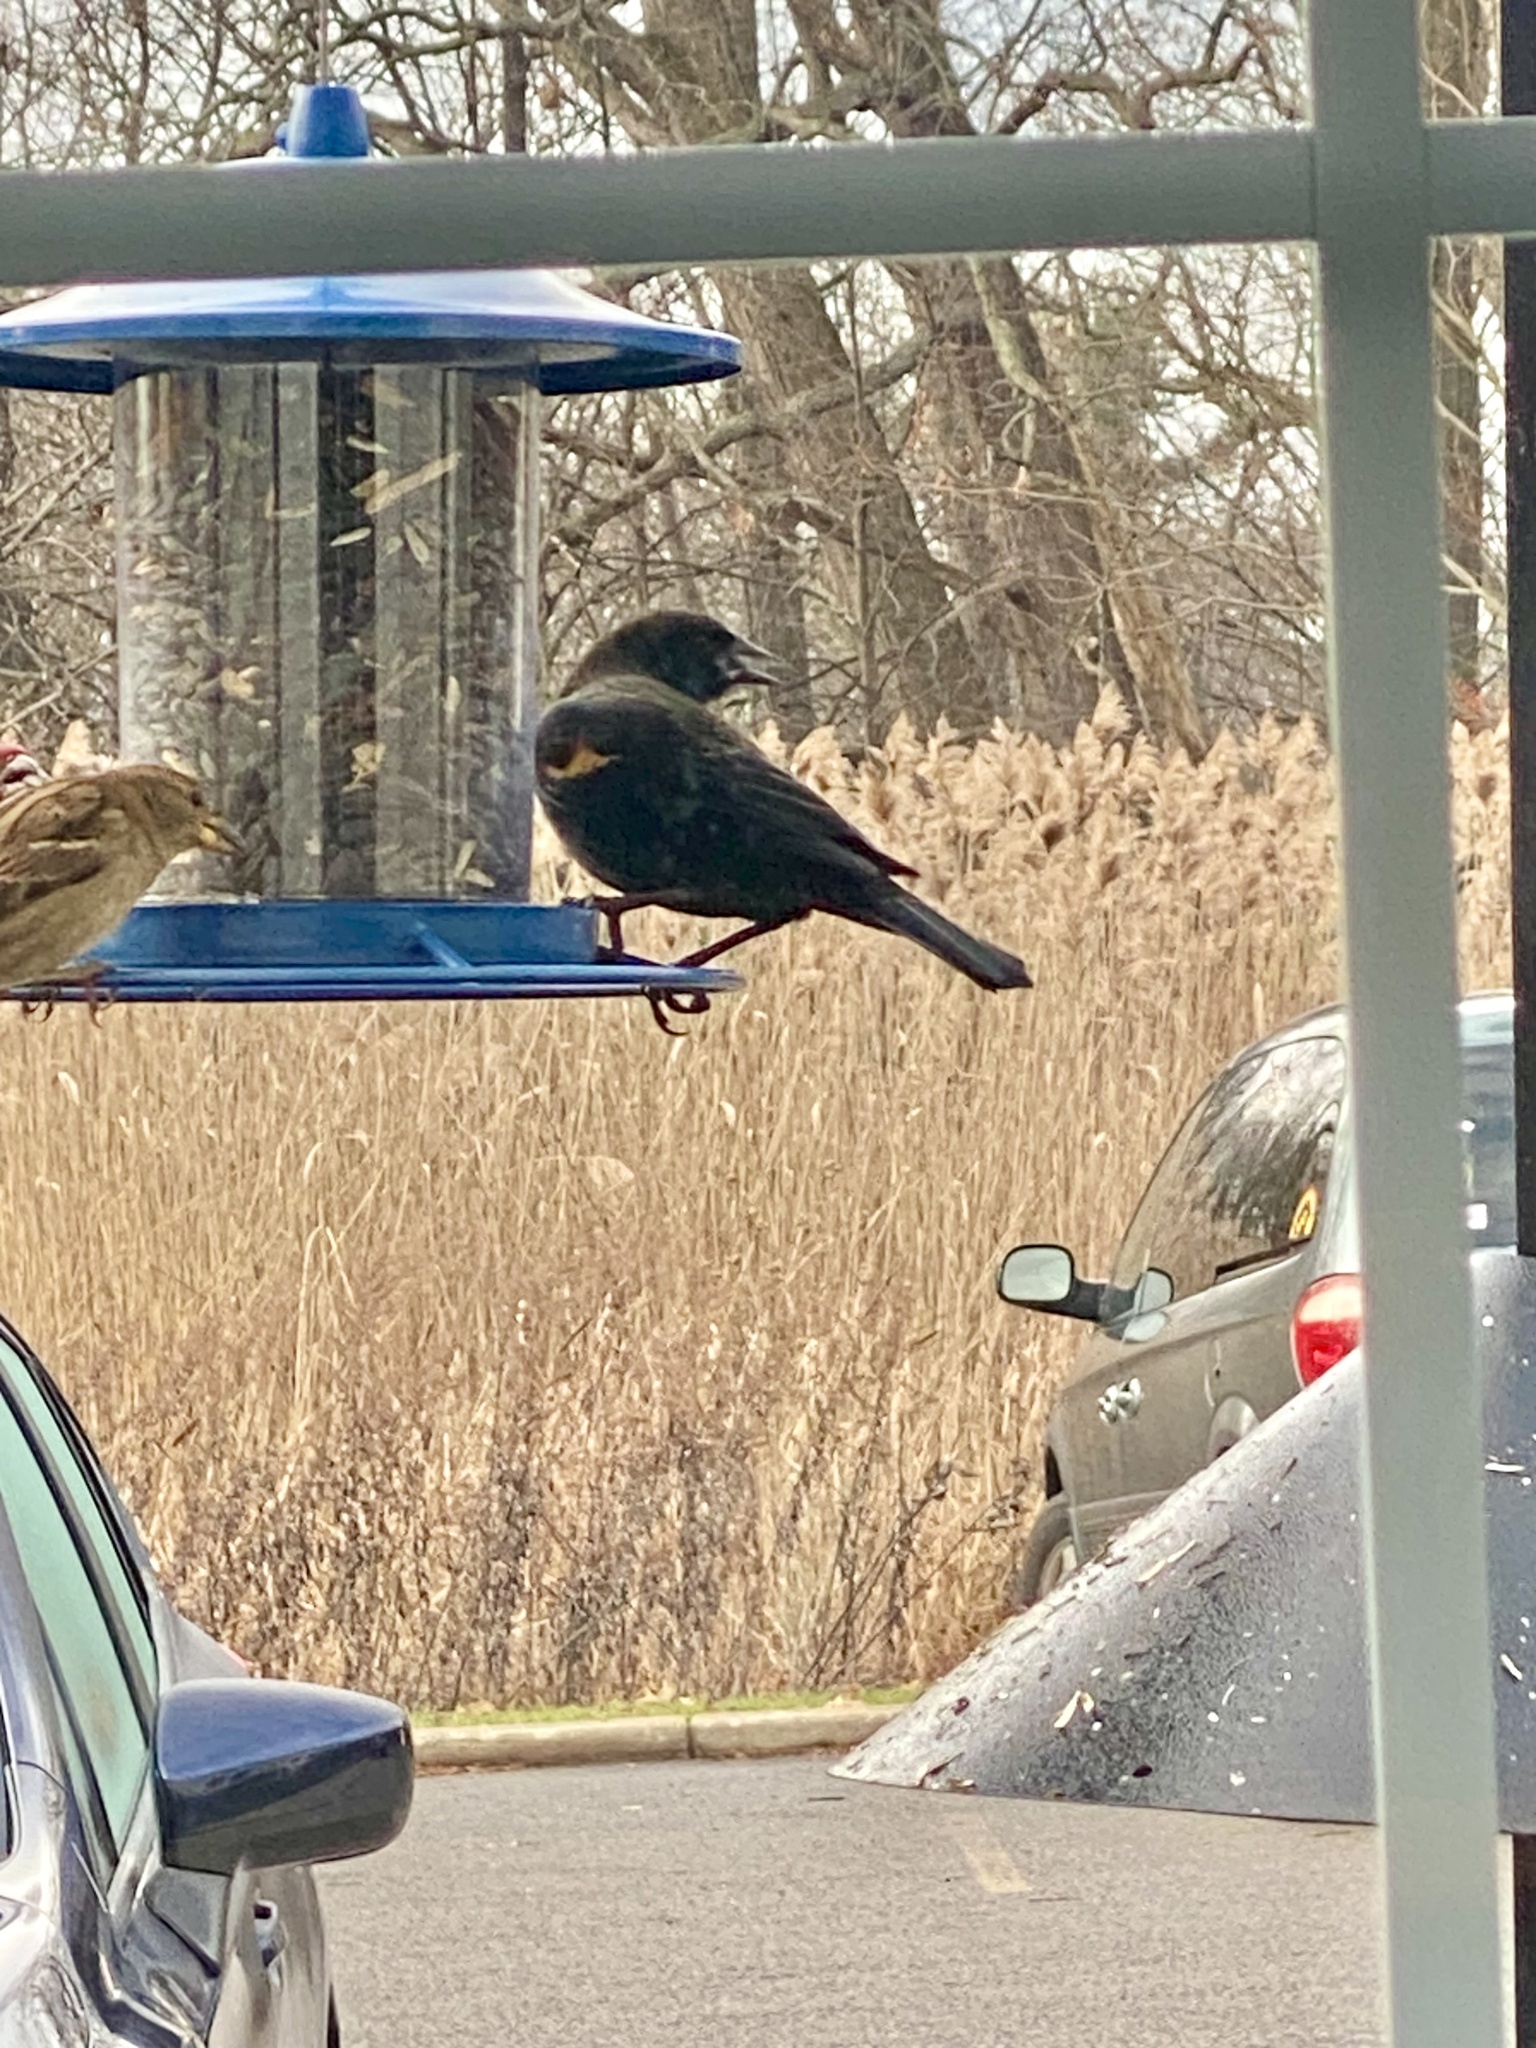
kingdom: Animalia
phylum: Chordata
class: Aves
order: Passeriformes
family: Icteridae
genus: Agelaius
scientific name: Agelaius phoeniceus
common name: Red-winged blackbird
